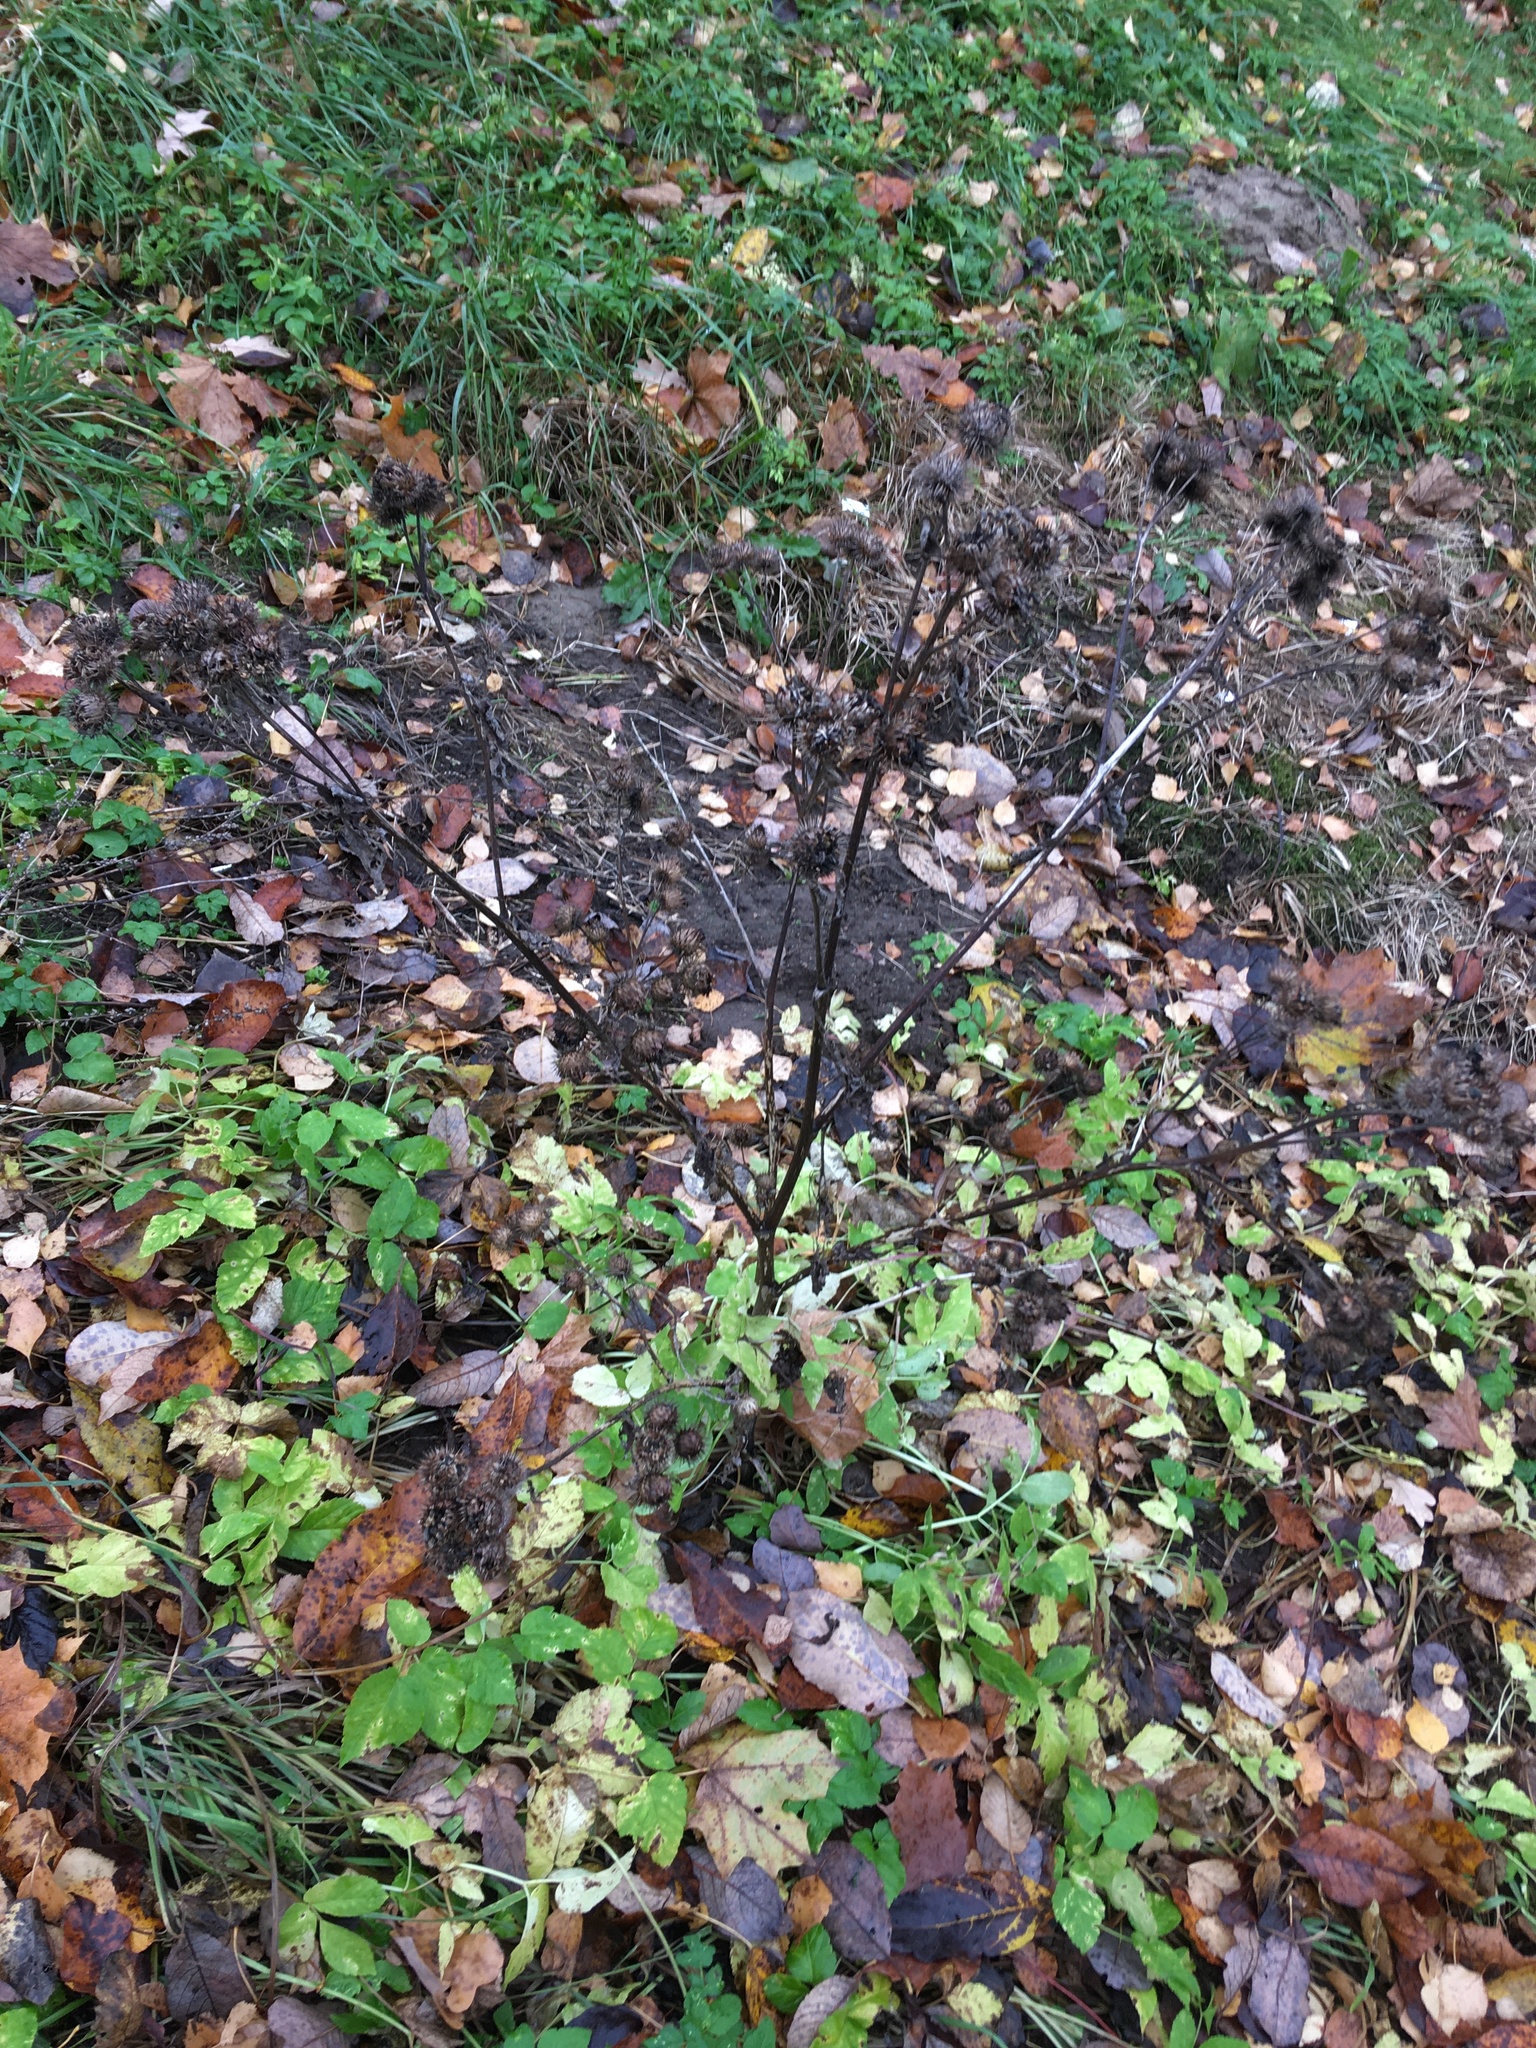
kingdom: Plantae
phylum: Tracheophyta
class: Magnoliopsida
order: Asterales
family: Asteraceae
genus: Arctium
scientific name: Arctium tomentosum
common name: Woolly burdock
